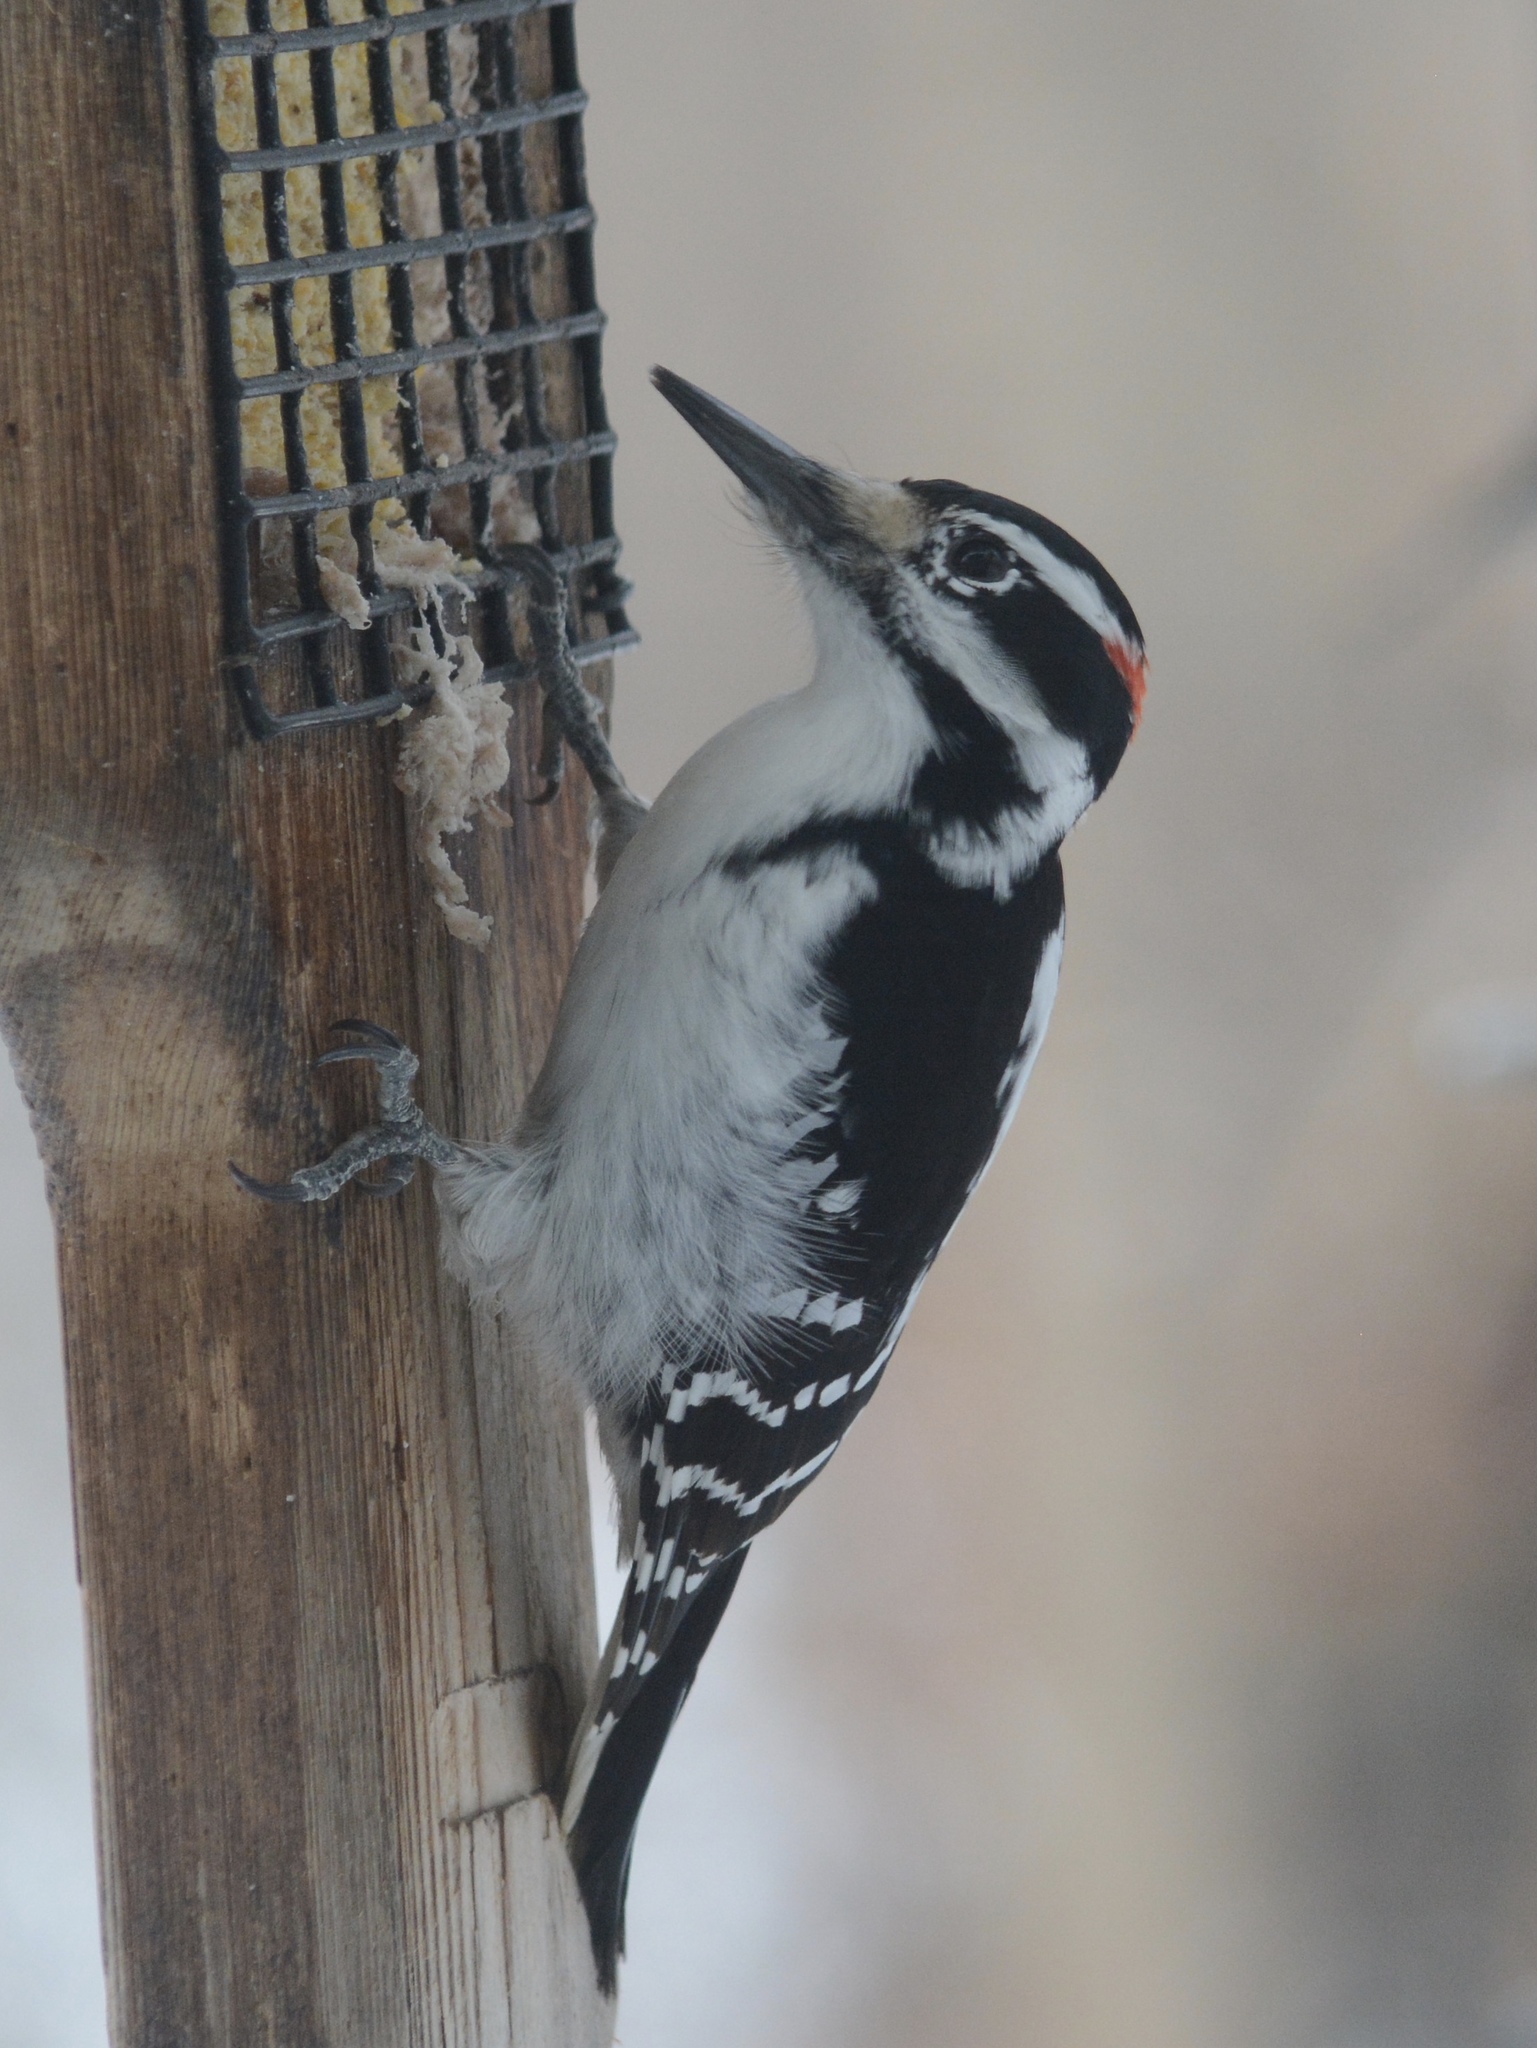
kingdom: Animalia
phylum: Chordata
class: Aves
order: Piciformes
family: Picidae
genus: Leuconotopicus
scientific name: Leuconotopicus villosus
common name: Hairy woodpecker
